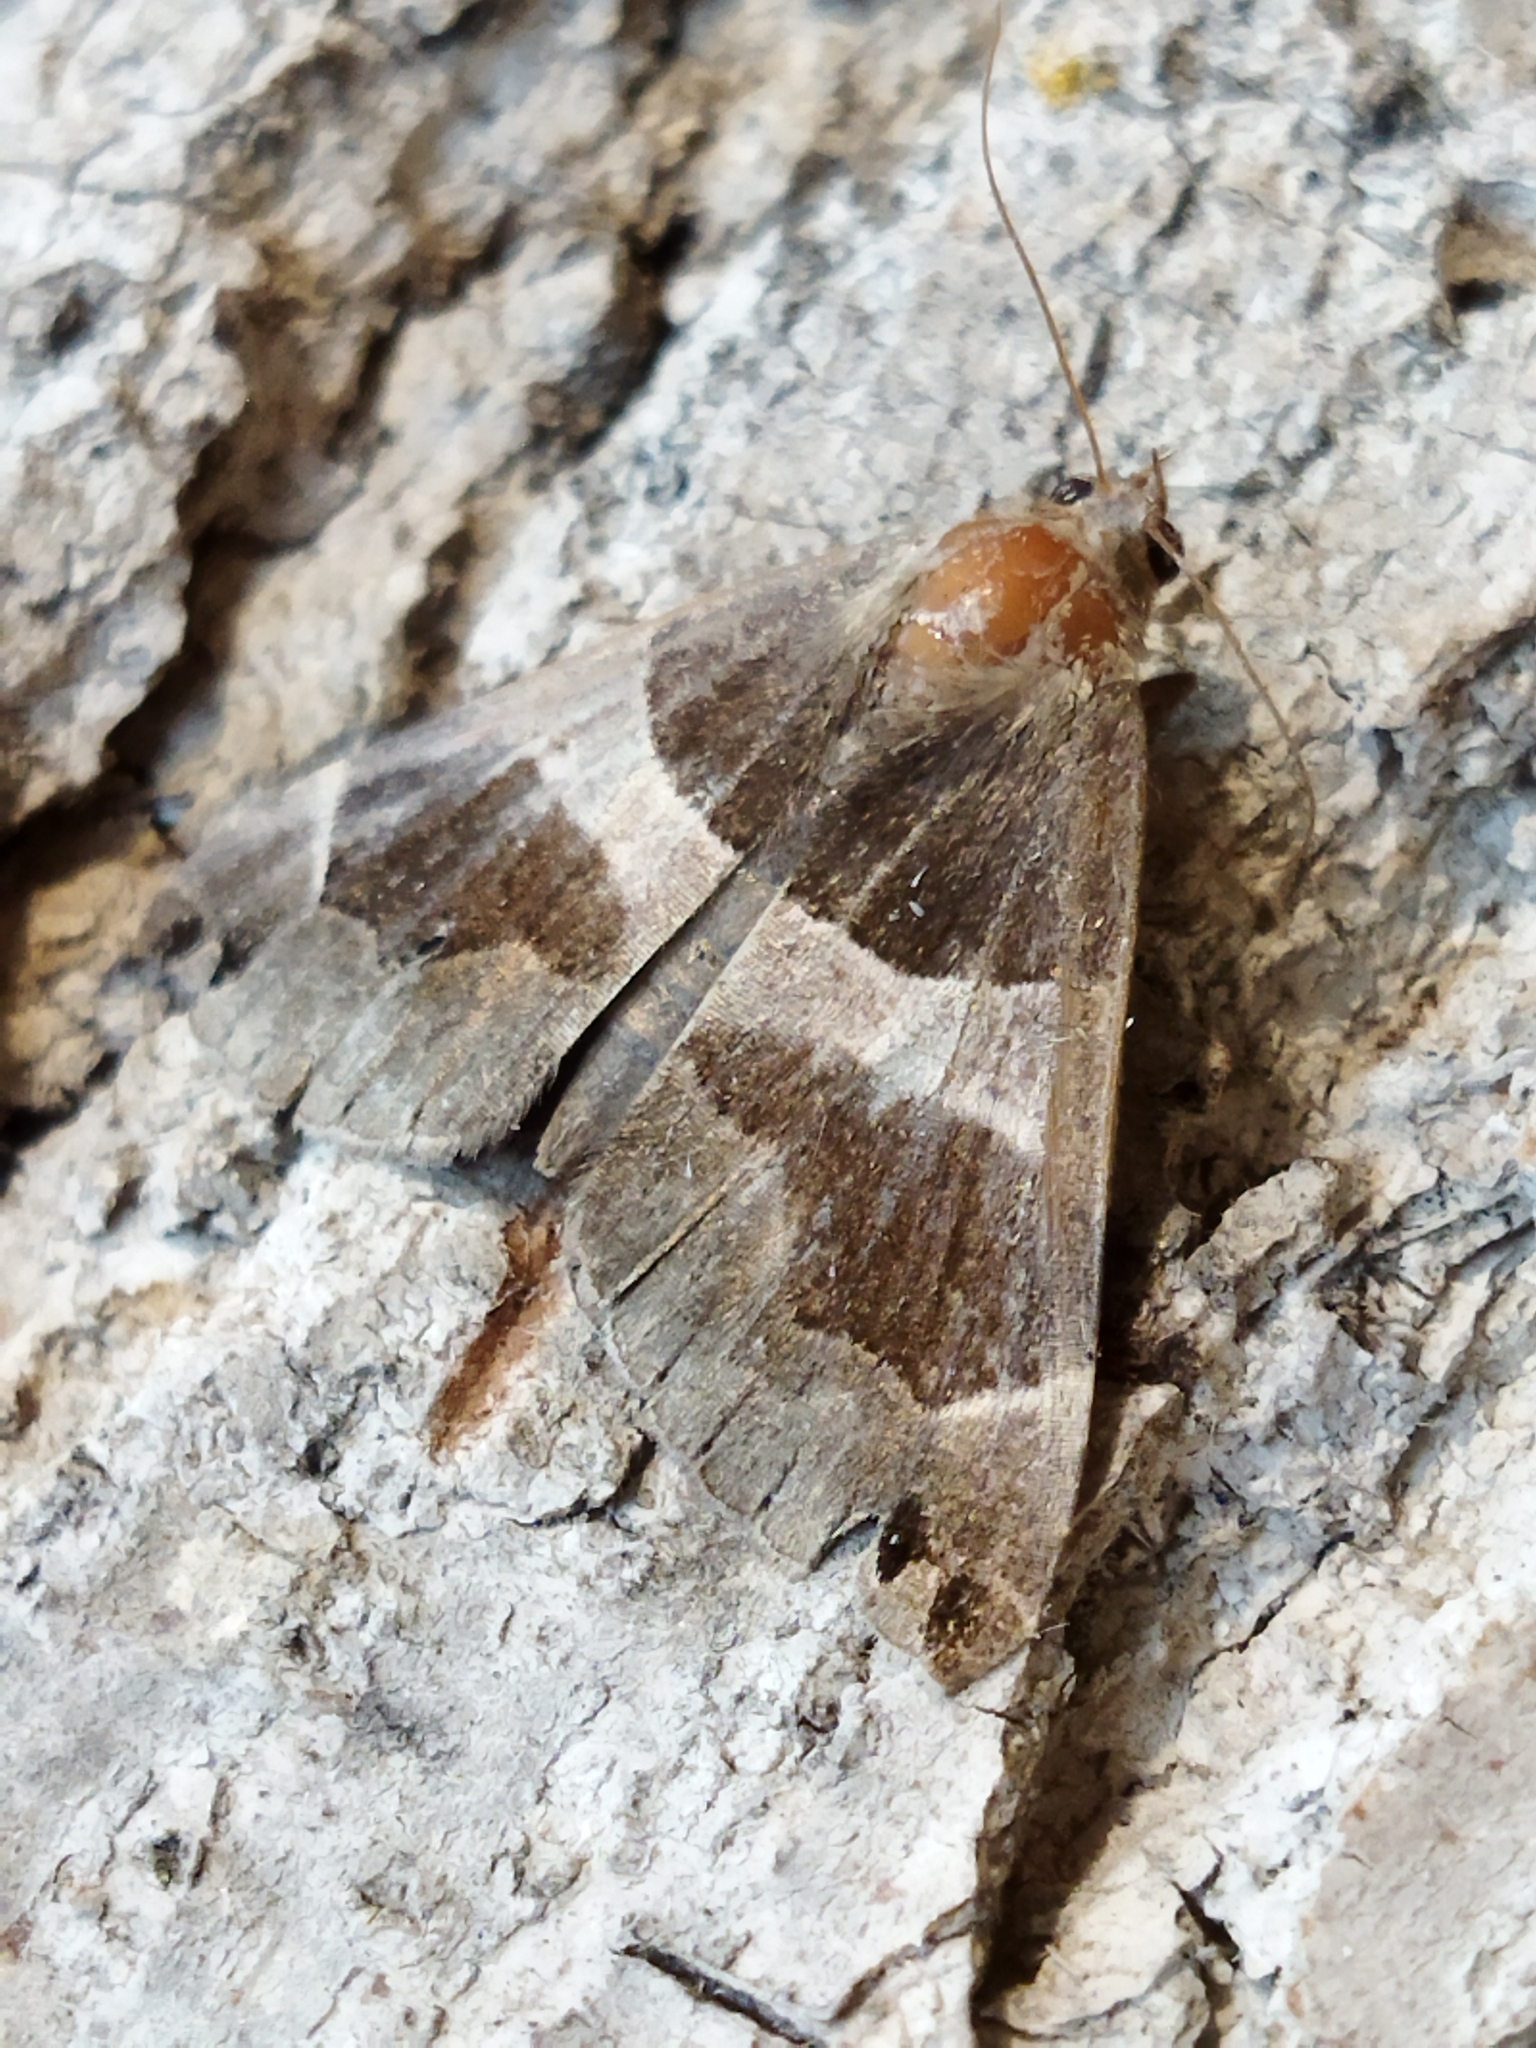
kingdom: Animalia
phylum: Arthropoda
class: Insecta
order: Lepidoptera
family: Erebidae
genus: Dysgonia
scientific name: Dysgonia algira
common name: Passenger
